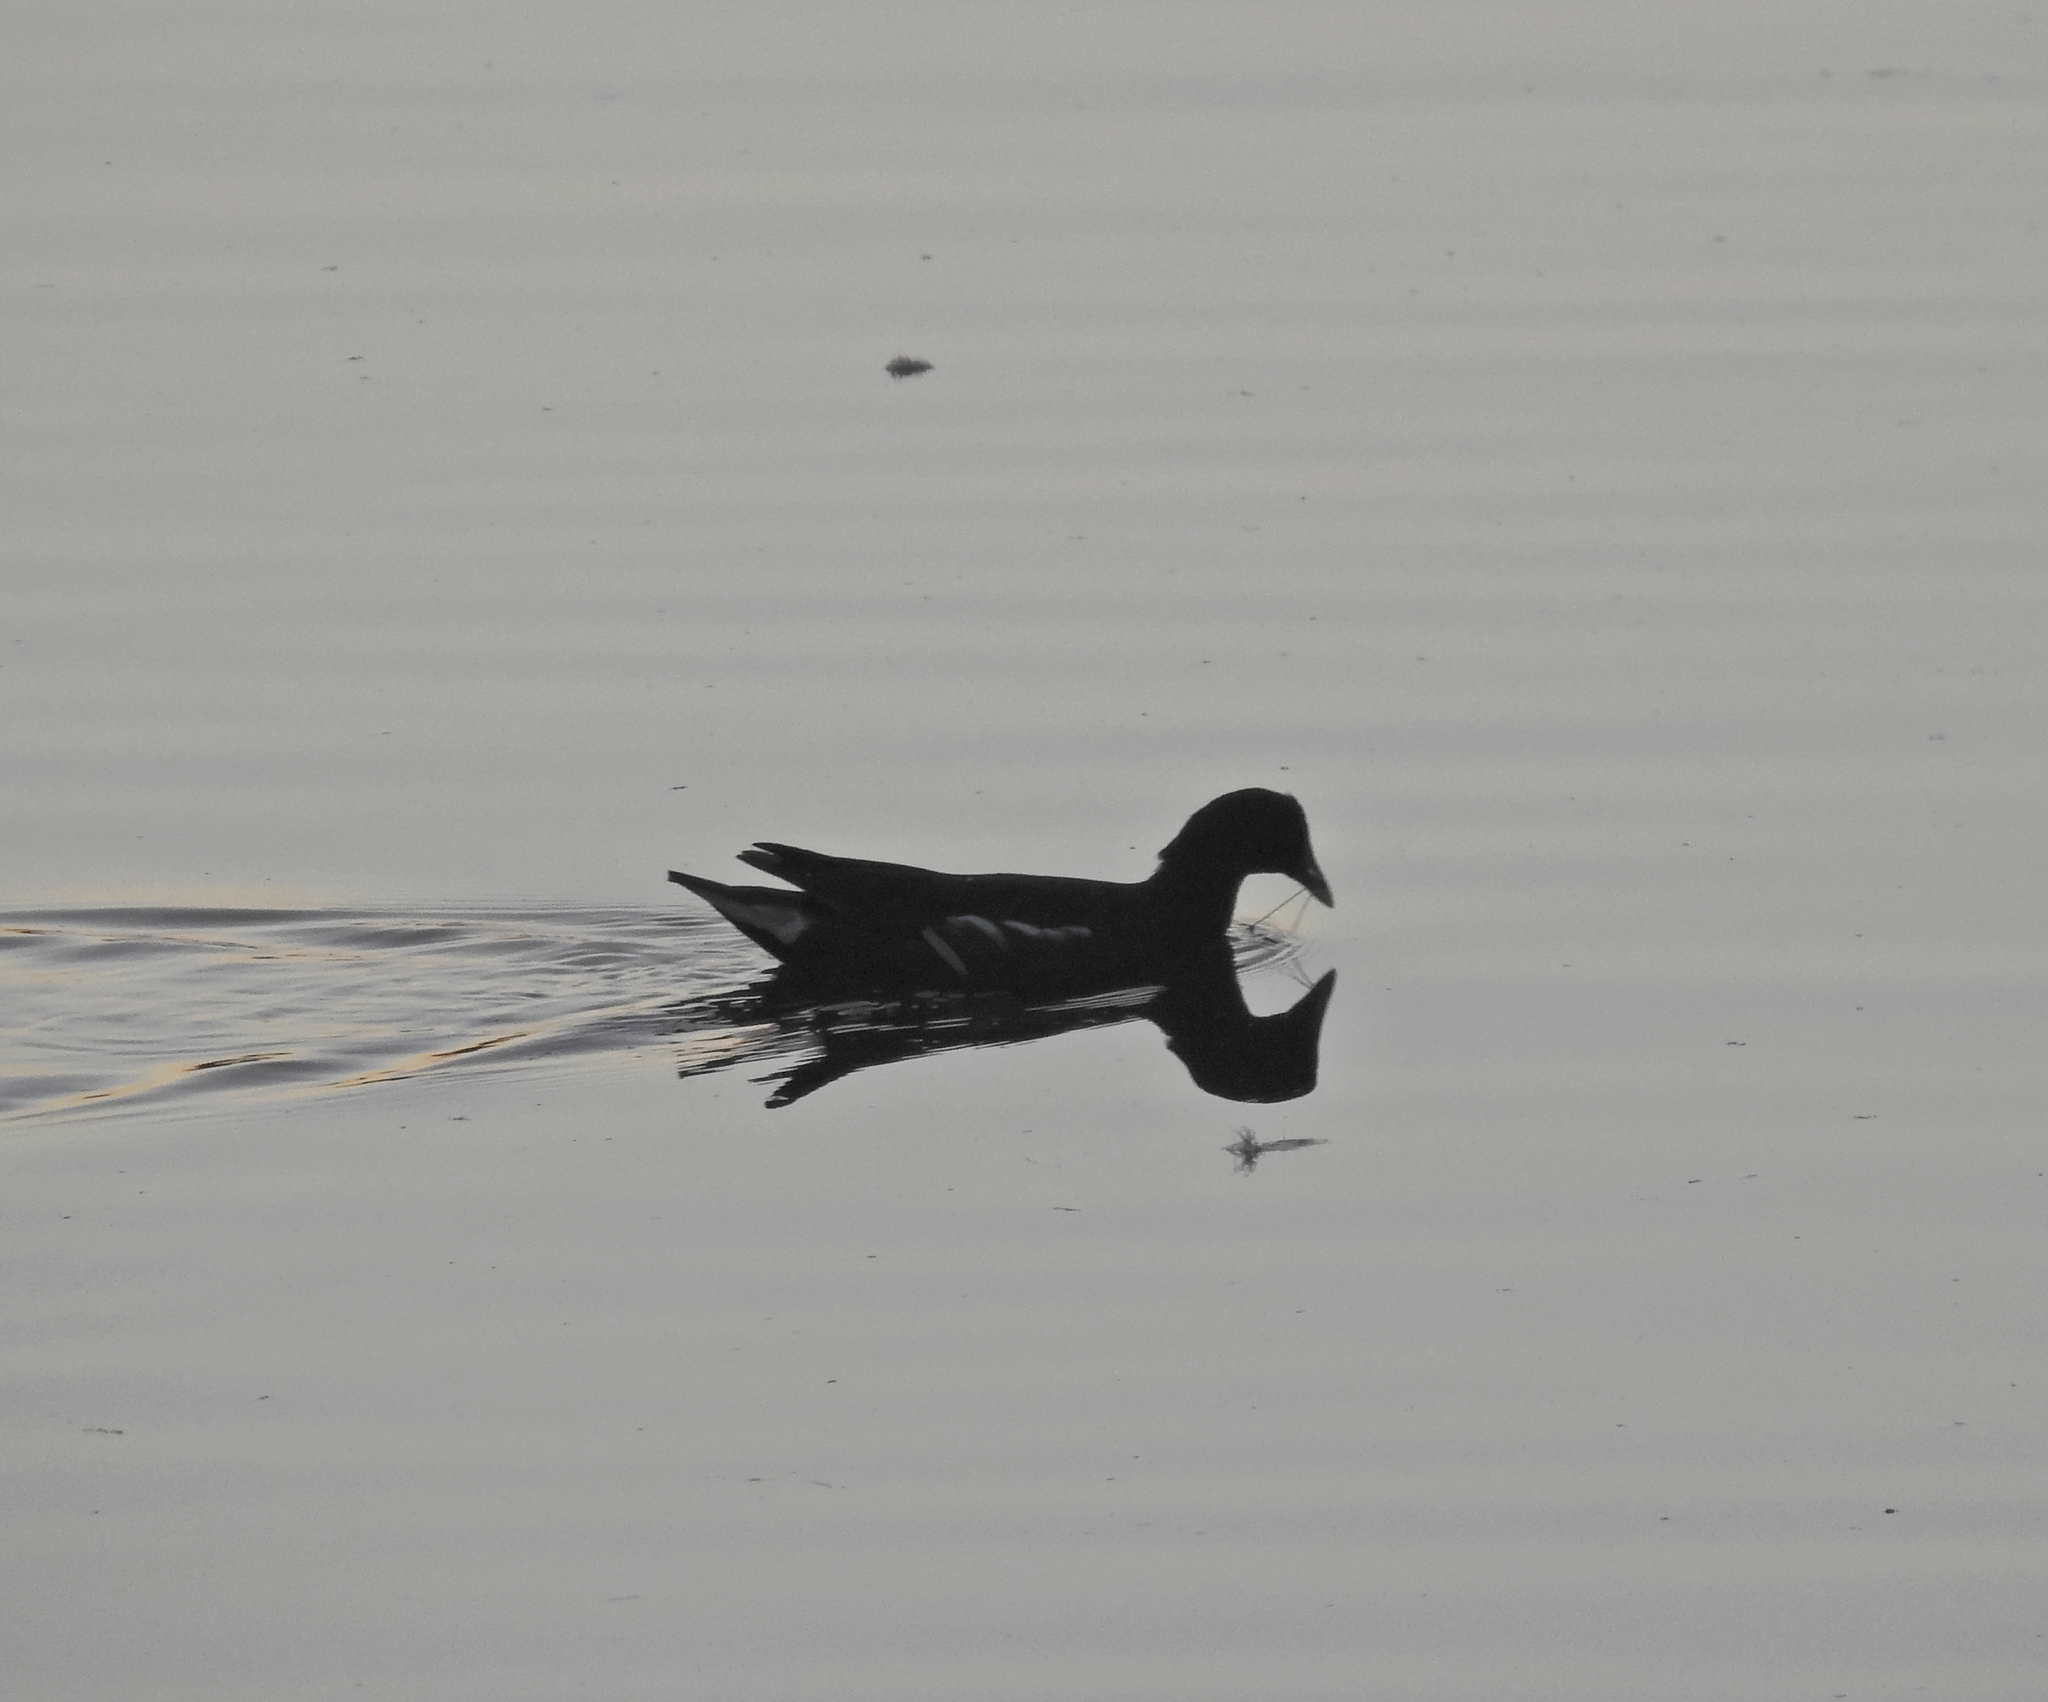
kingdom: Animalia
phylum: Chordata
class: Aves
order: Gruiformes
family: Rallidae
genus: Gallinula
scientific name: Gallinula chloropus
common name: Common moorhen
